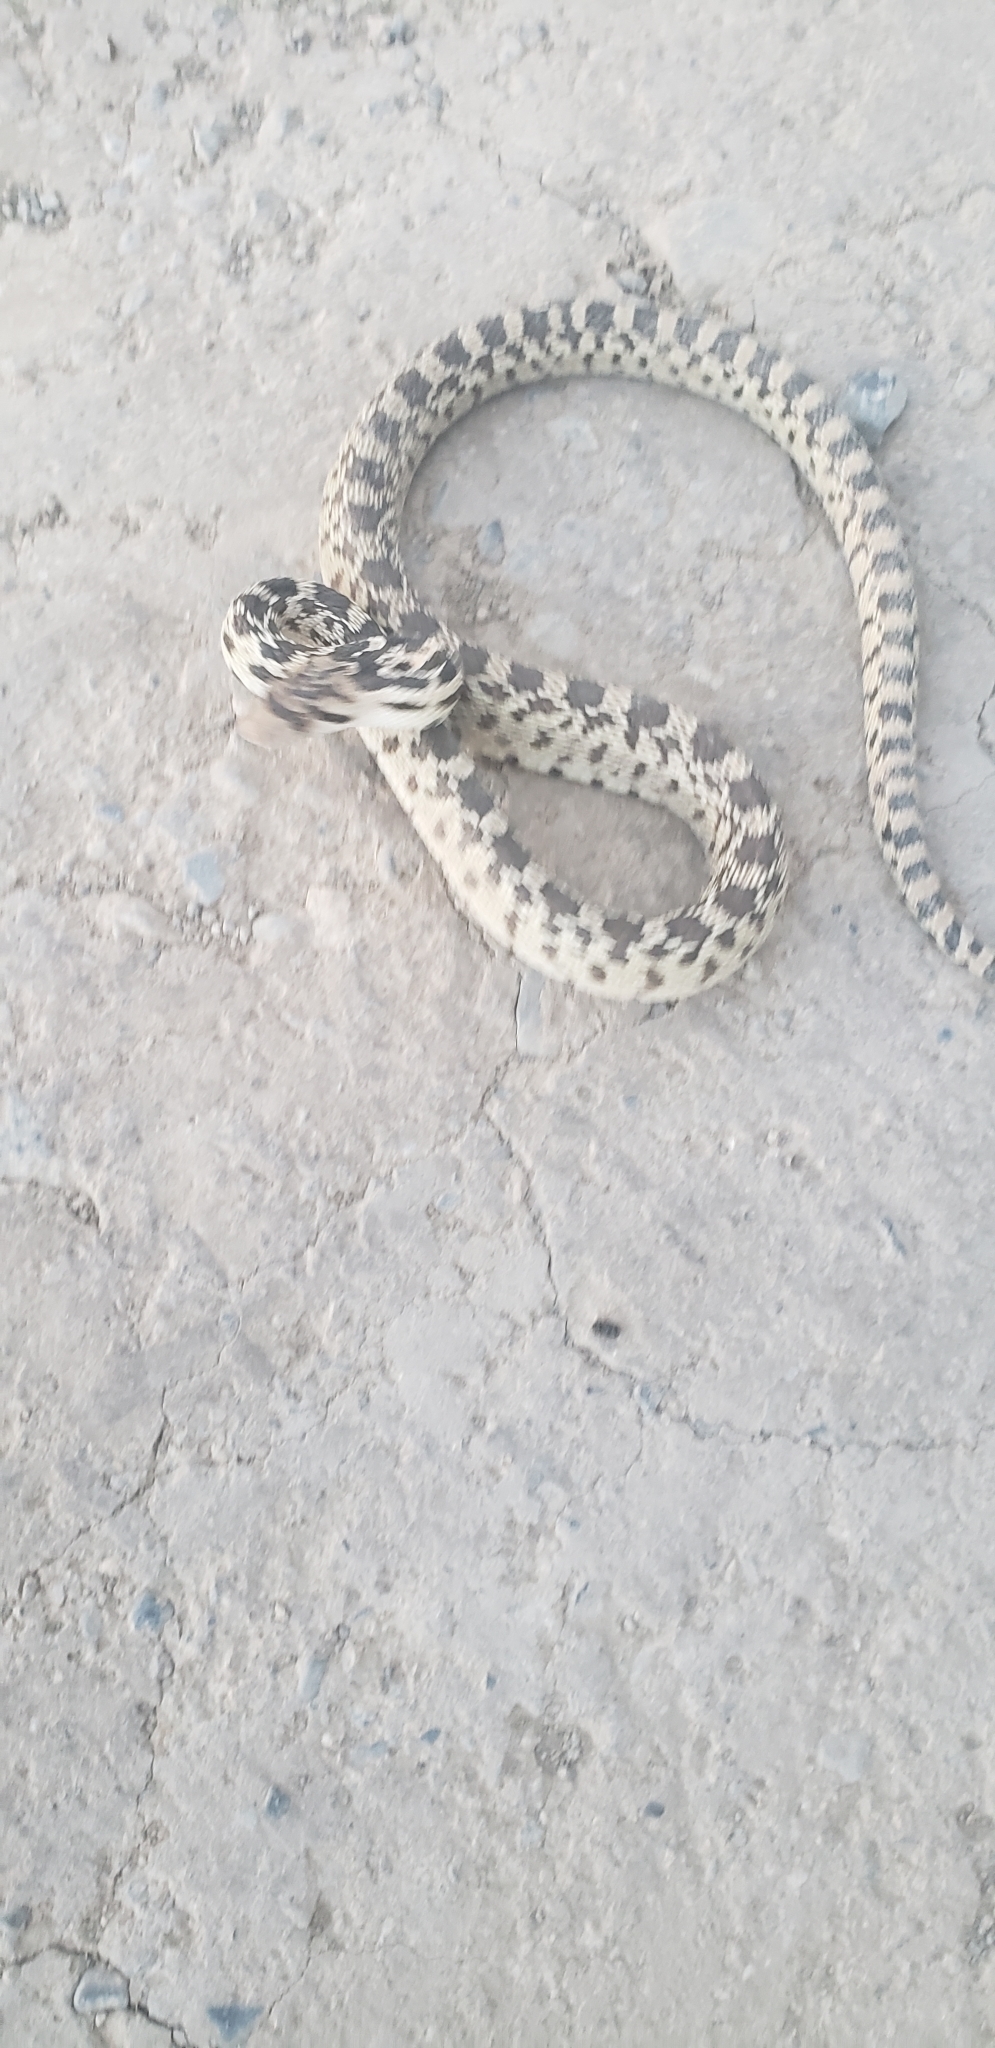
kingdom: Animalia
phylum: Chordata
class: Squamata
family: Colubridae
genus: Pituophis
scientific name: Pituophis catenifer
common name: Gopher snake
